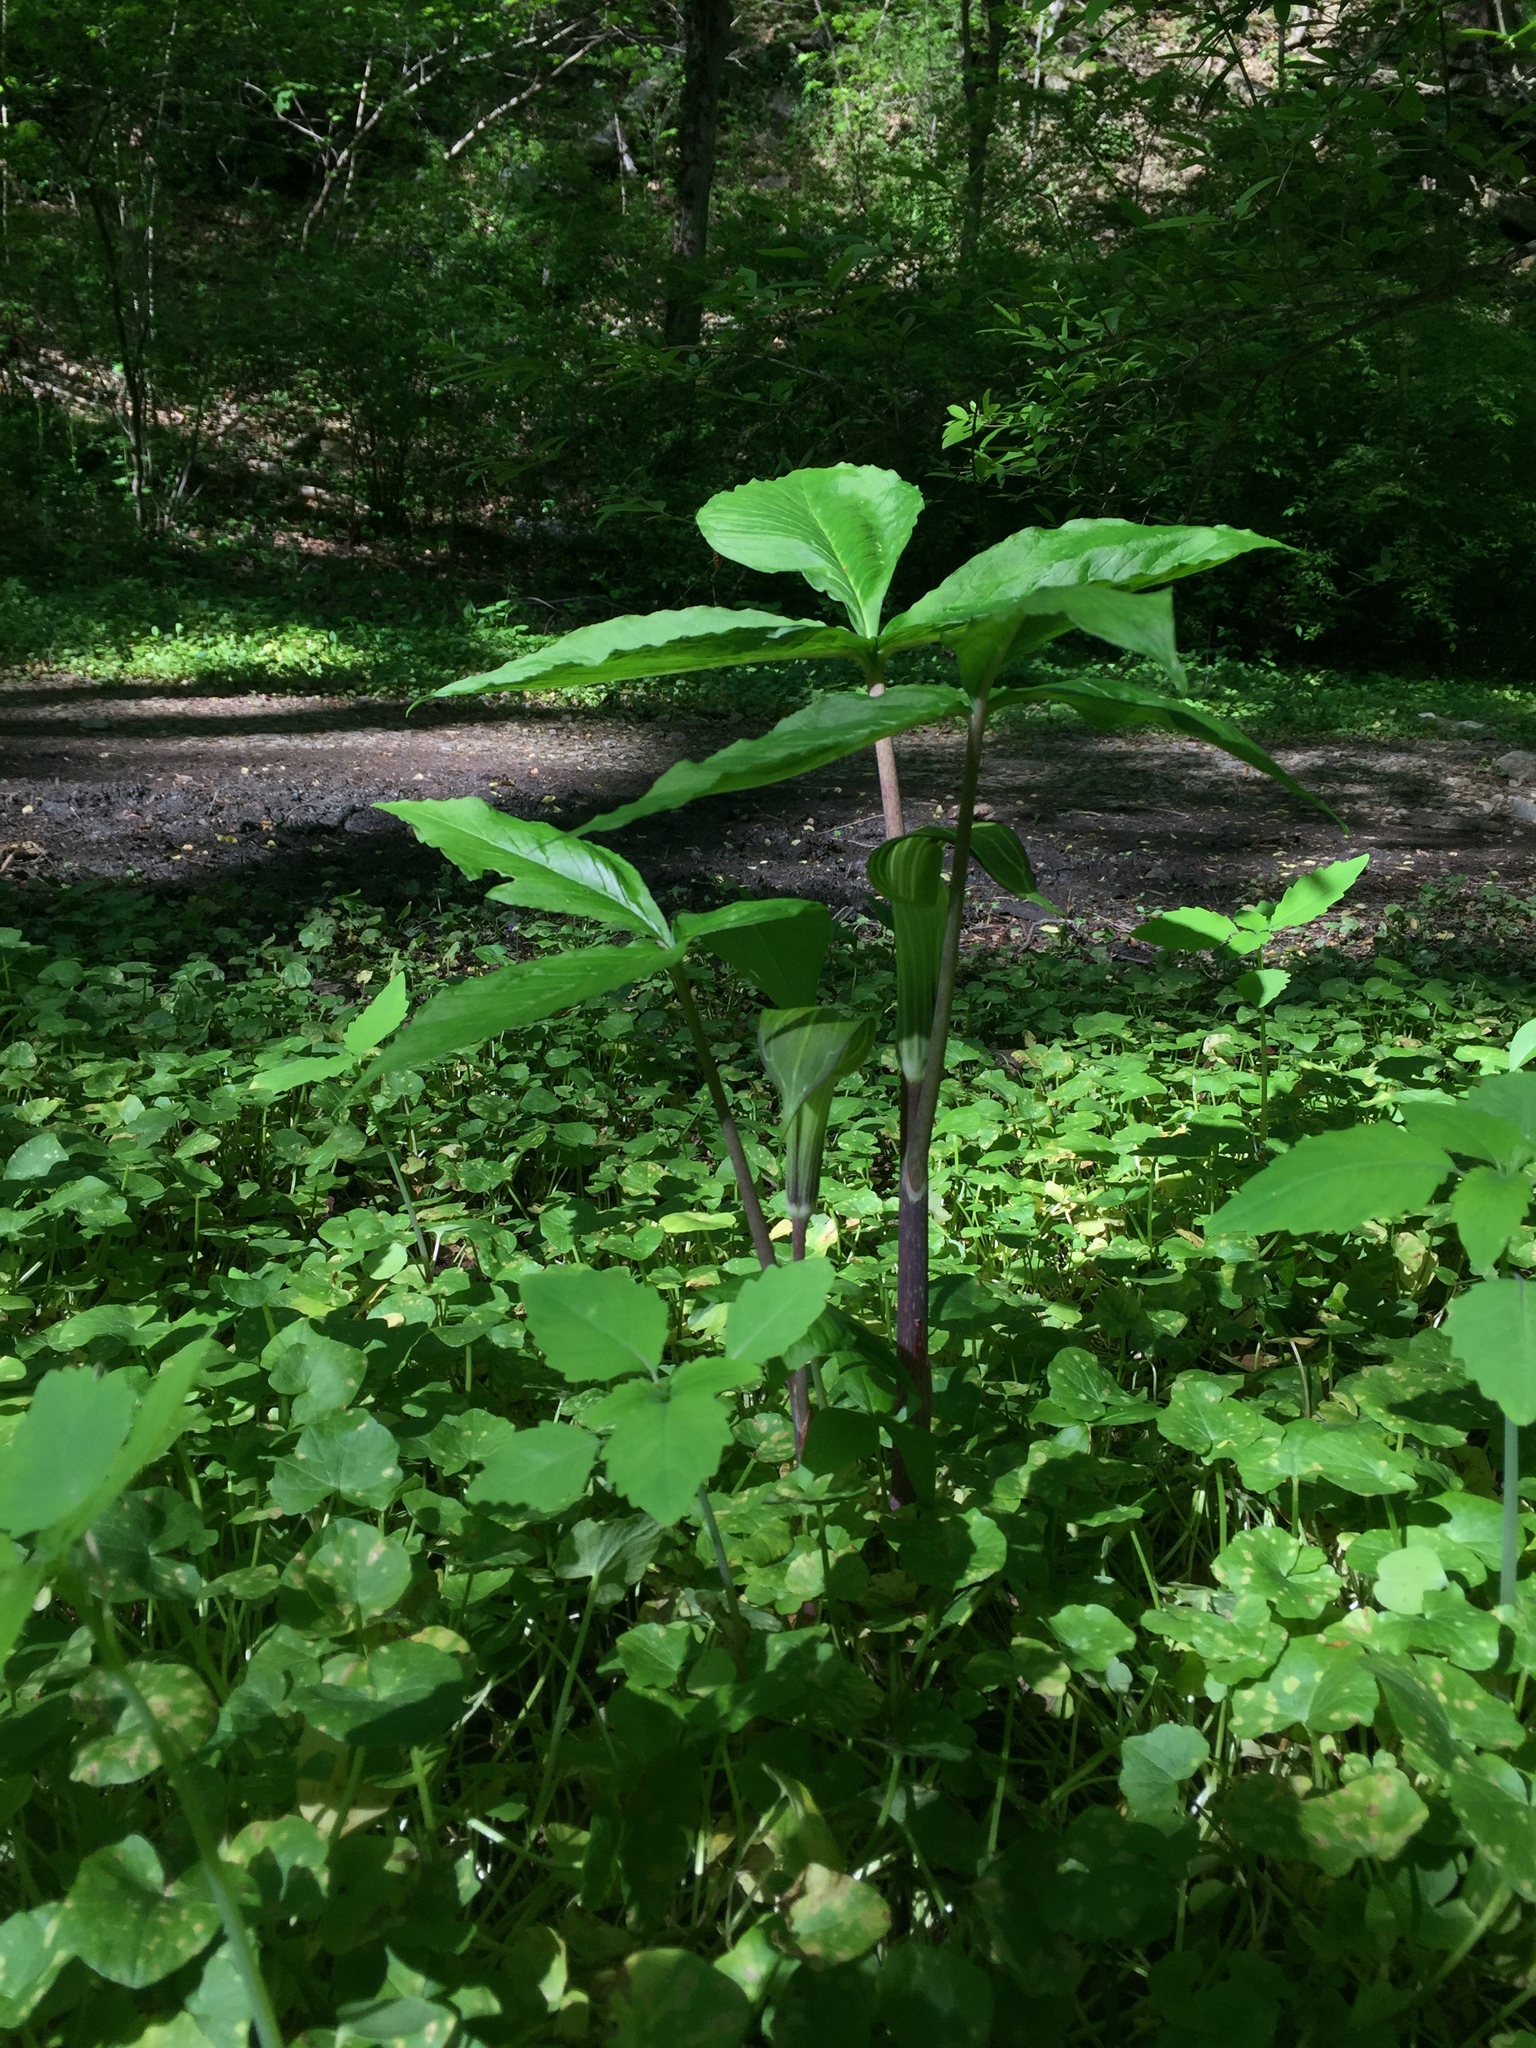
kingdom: Plantae
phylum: Tracheophyta
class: Liliopsida
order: Alismatales
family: Araceae
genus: Arisaema
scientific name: Arisaema triphyllum
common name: Jack-in-the-pulpit
